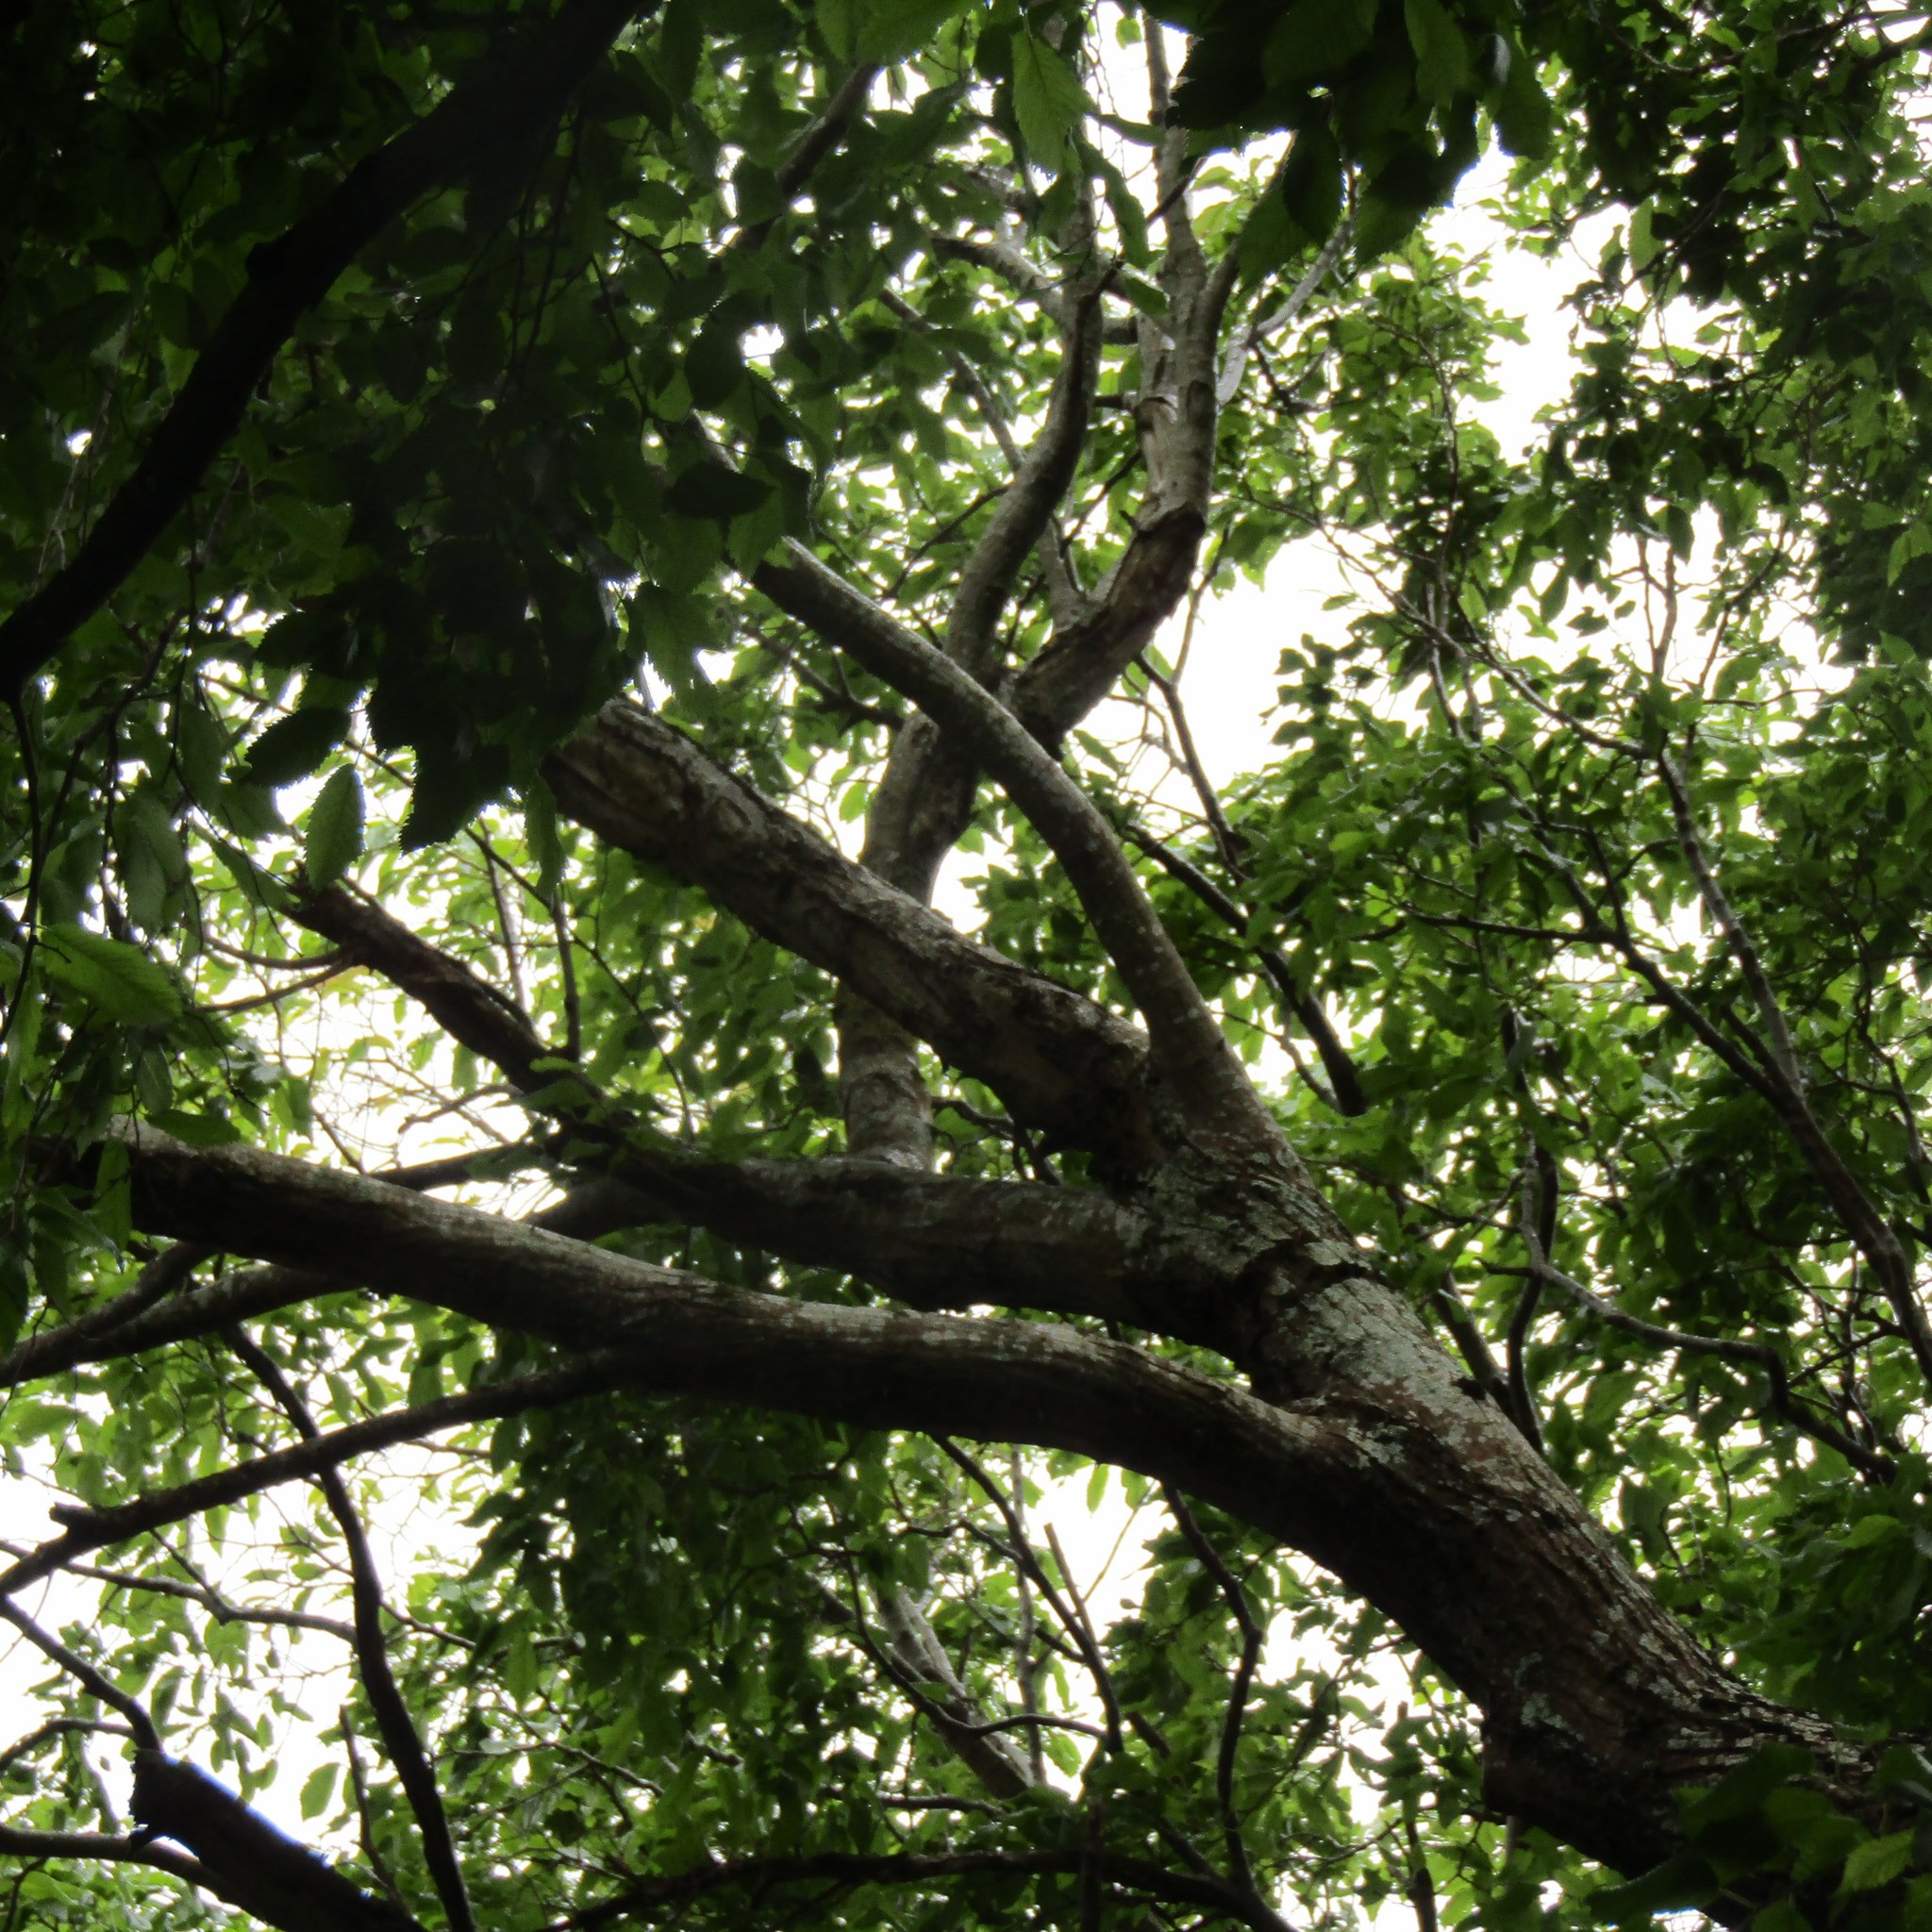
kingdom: Animalia
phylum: Chordata
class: Aves
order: Psittaciformes
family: Psittacidae
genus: Nestor
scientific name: Nestor meridionalis
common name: New zealand kaka
